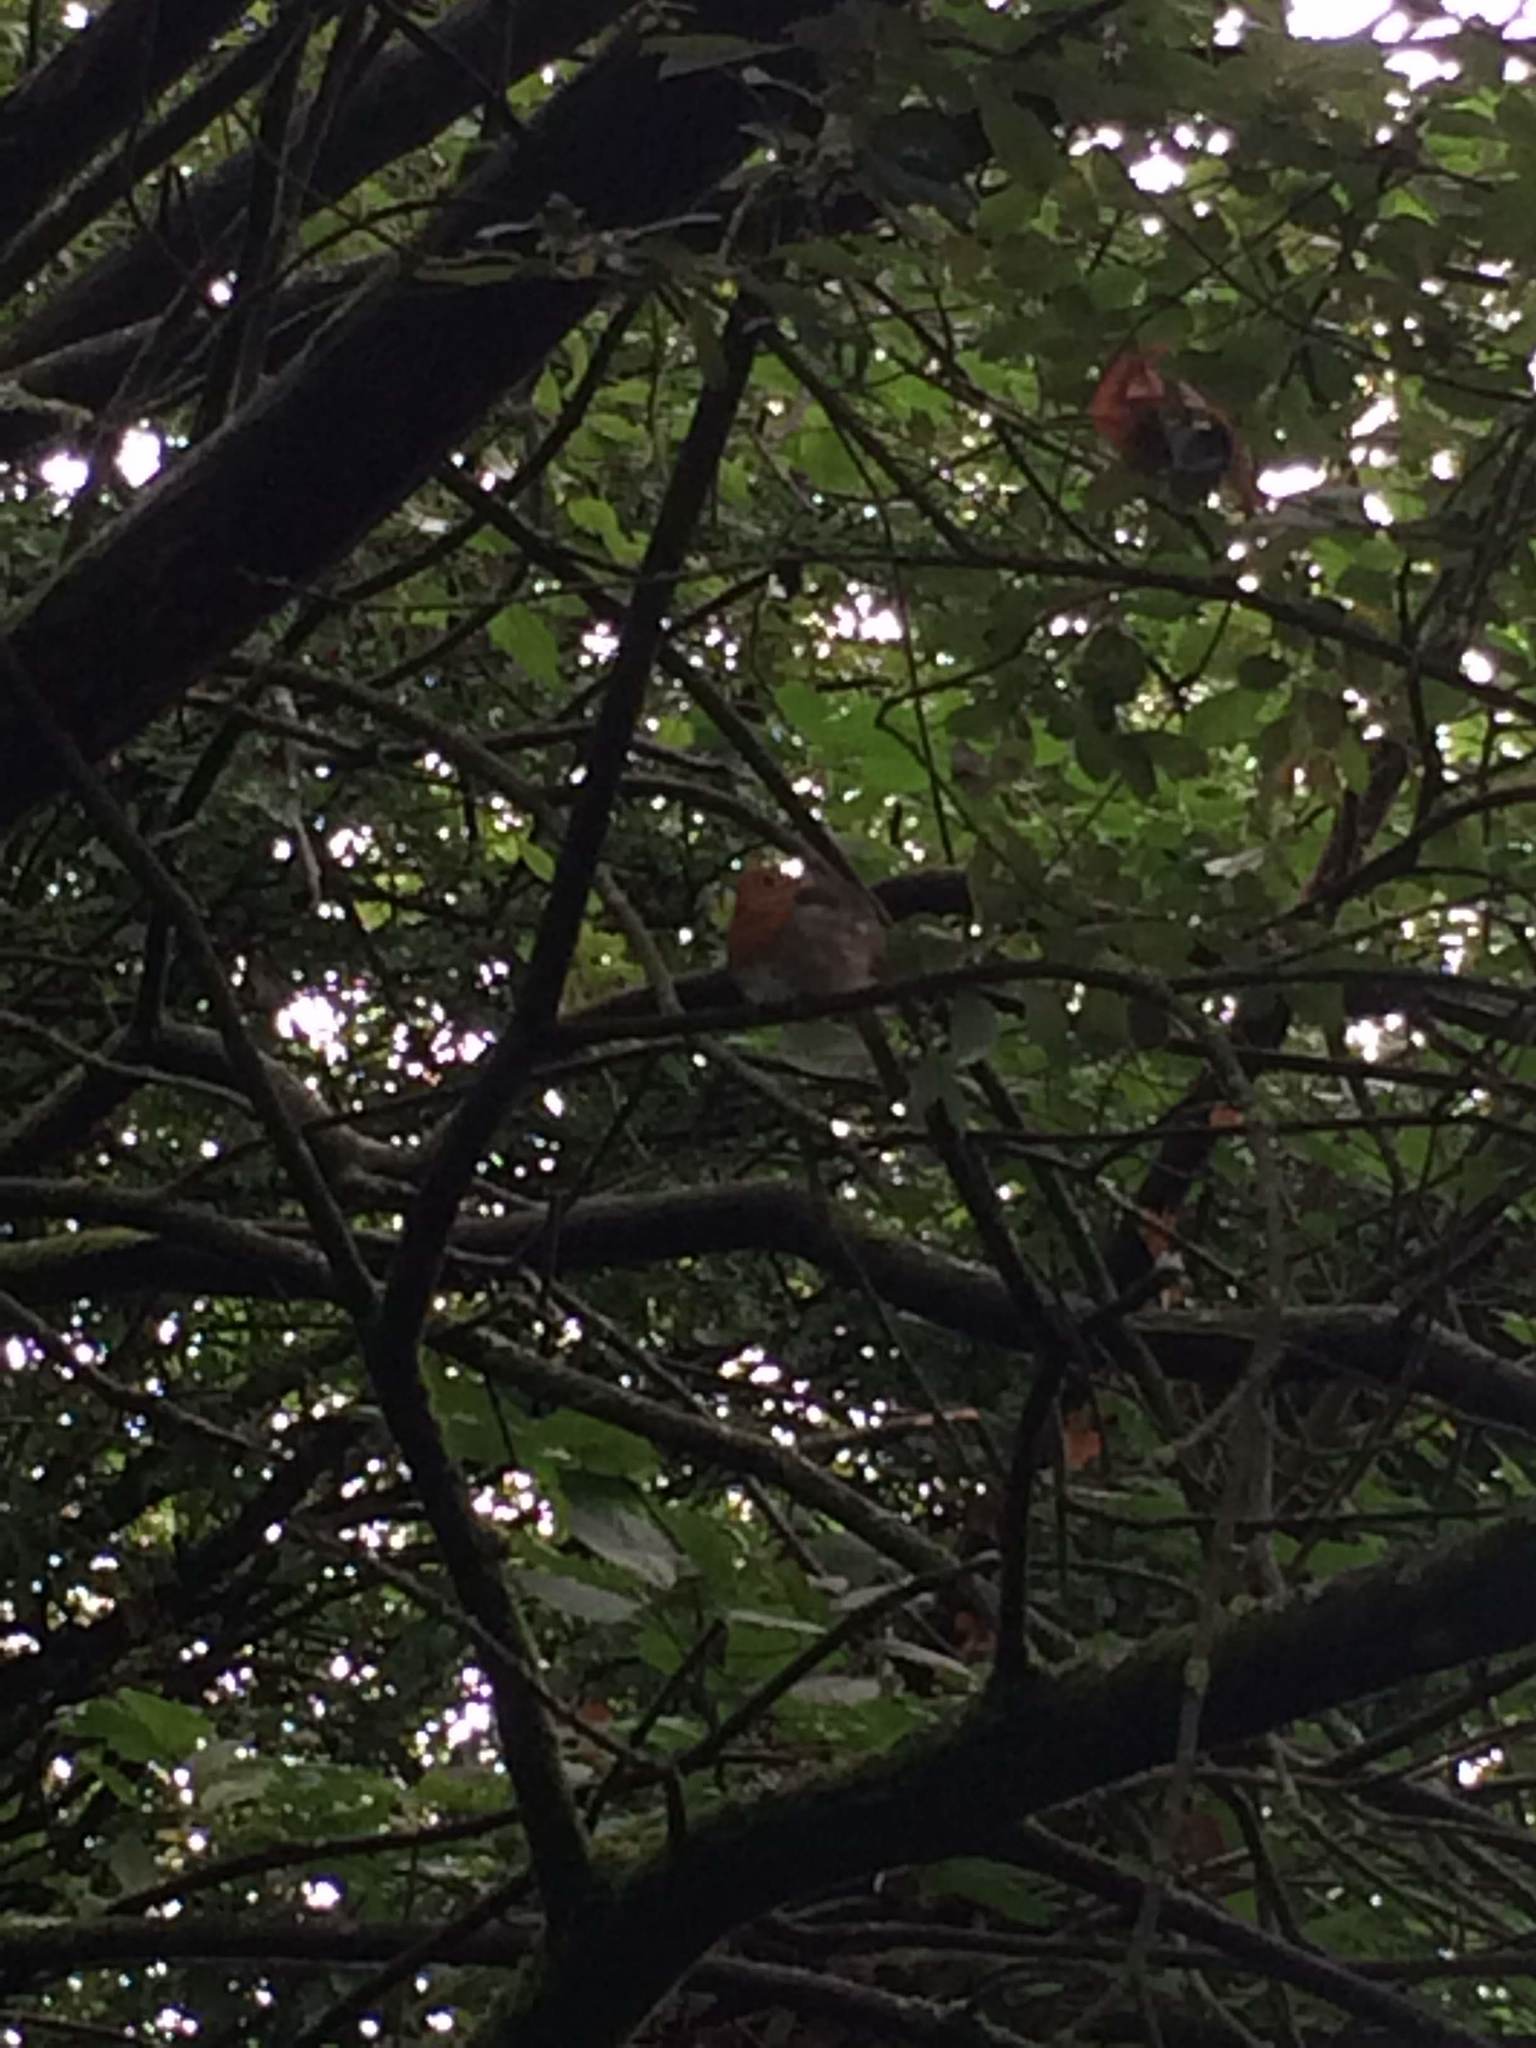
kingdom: Animalia
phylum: Chordata
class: Aves
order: Passeriformes
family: Muscicapidae
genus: Erithacus
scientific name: Erithacus rubecula
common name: European robin
